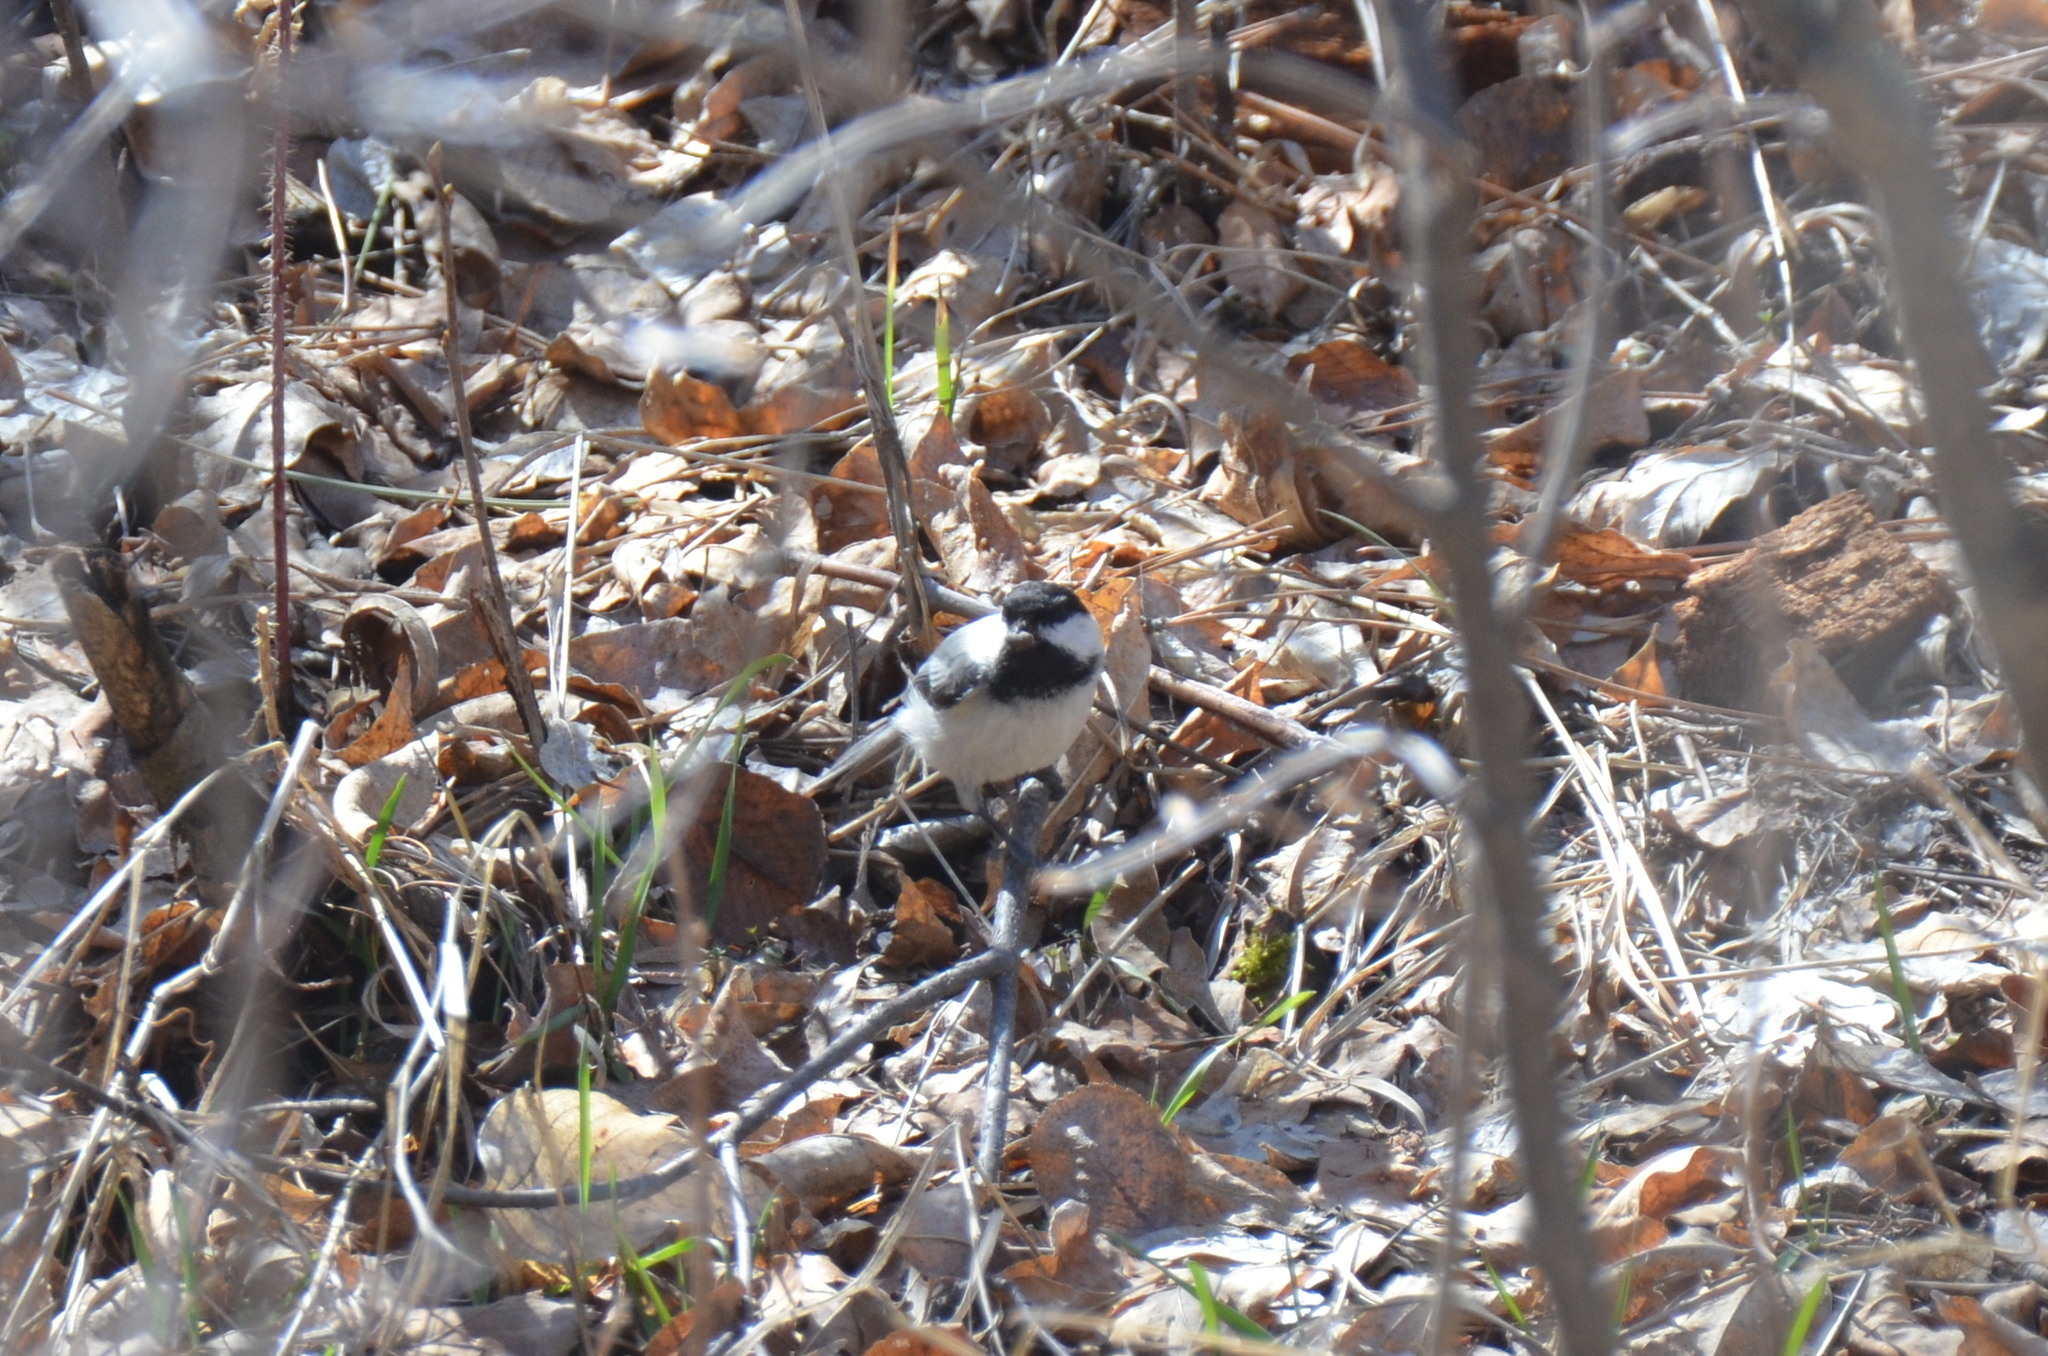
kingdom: Animalia
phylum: Chordata
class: Aves
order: Passeriformes
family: Paridae
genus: Poecile
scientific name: Poecile
